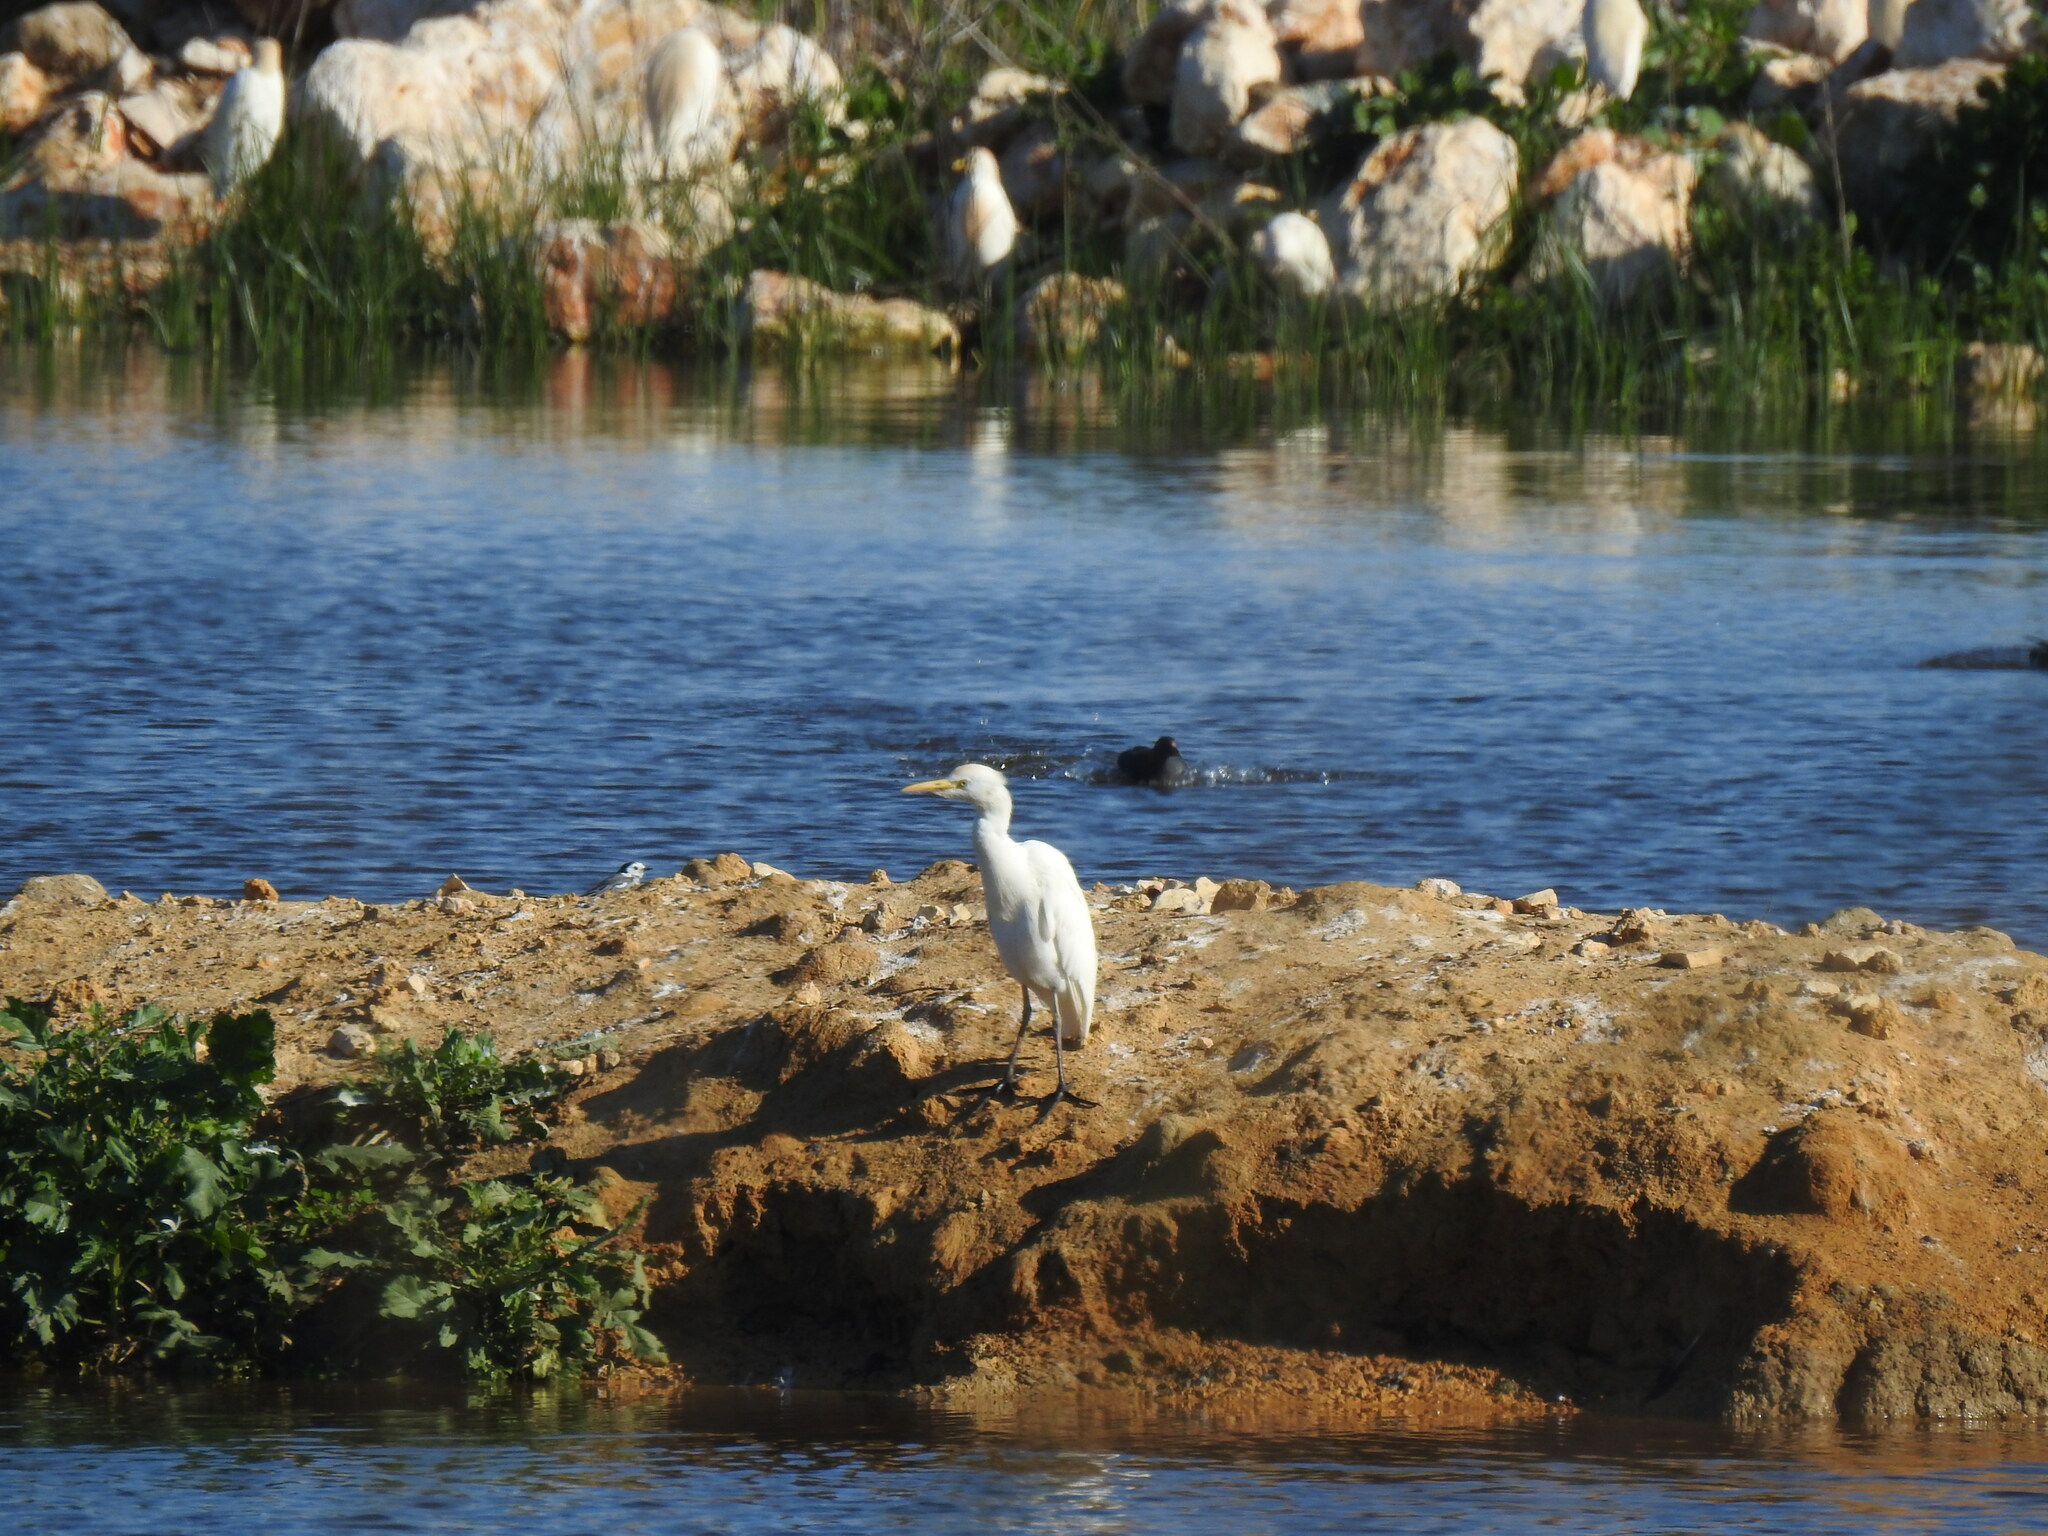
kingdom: Animalia
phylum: Chordata
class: Aves
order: Pelecaniformes
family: Ardeidae
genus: Bubulcus
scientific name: Bubulcus ibis
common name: Cattle egret
